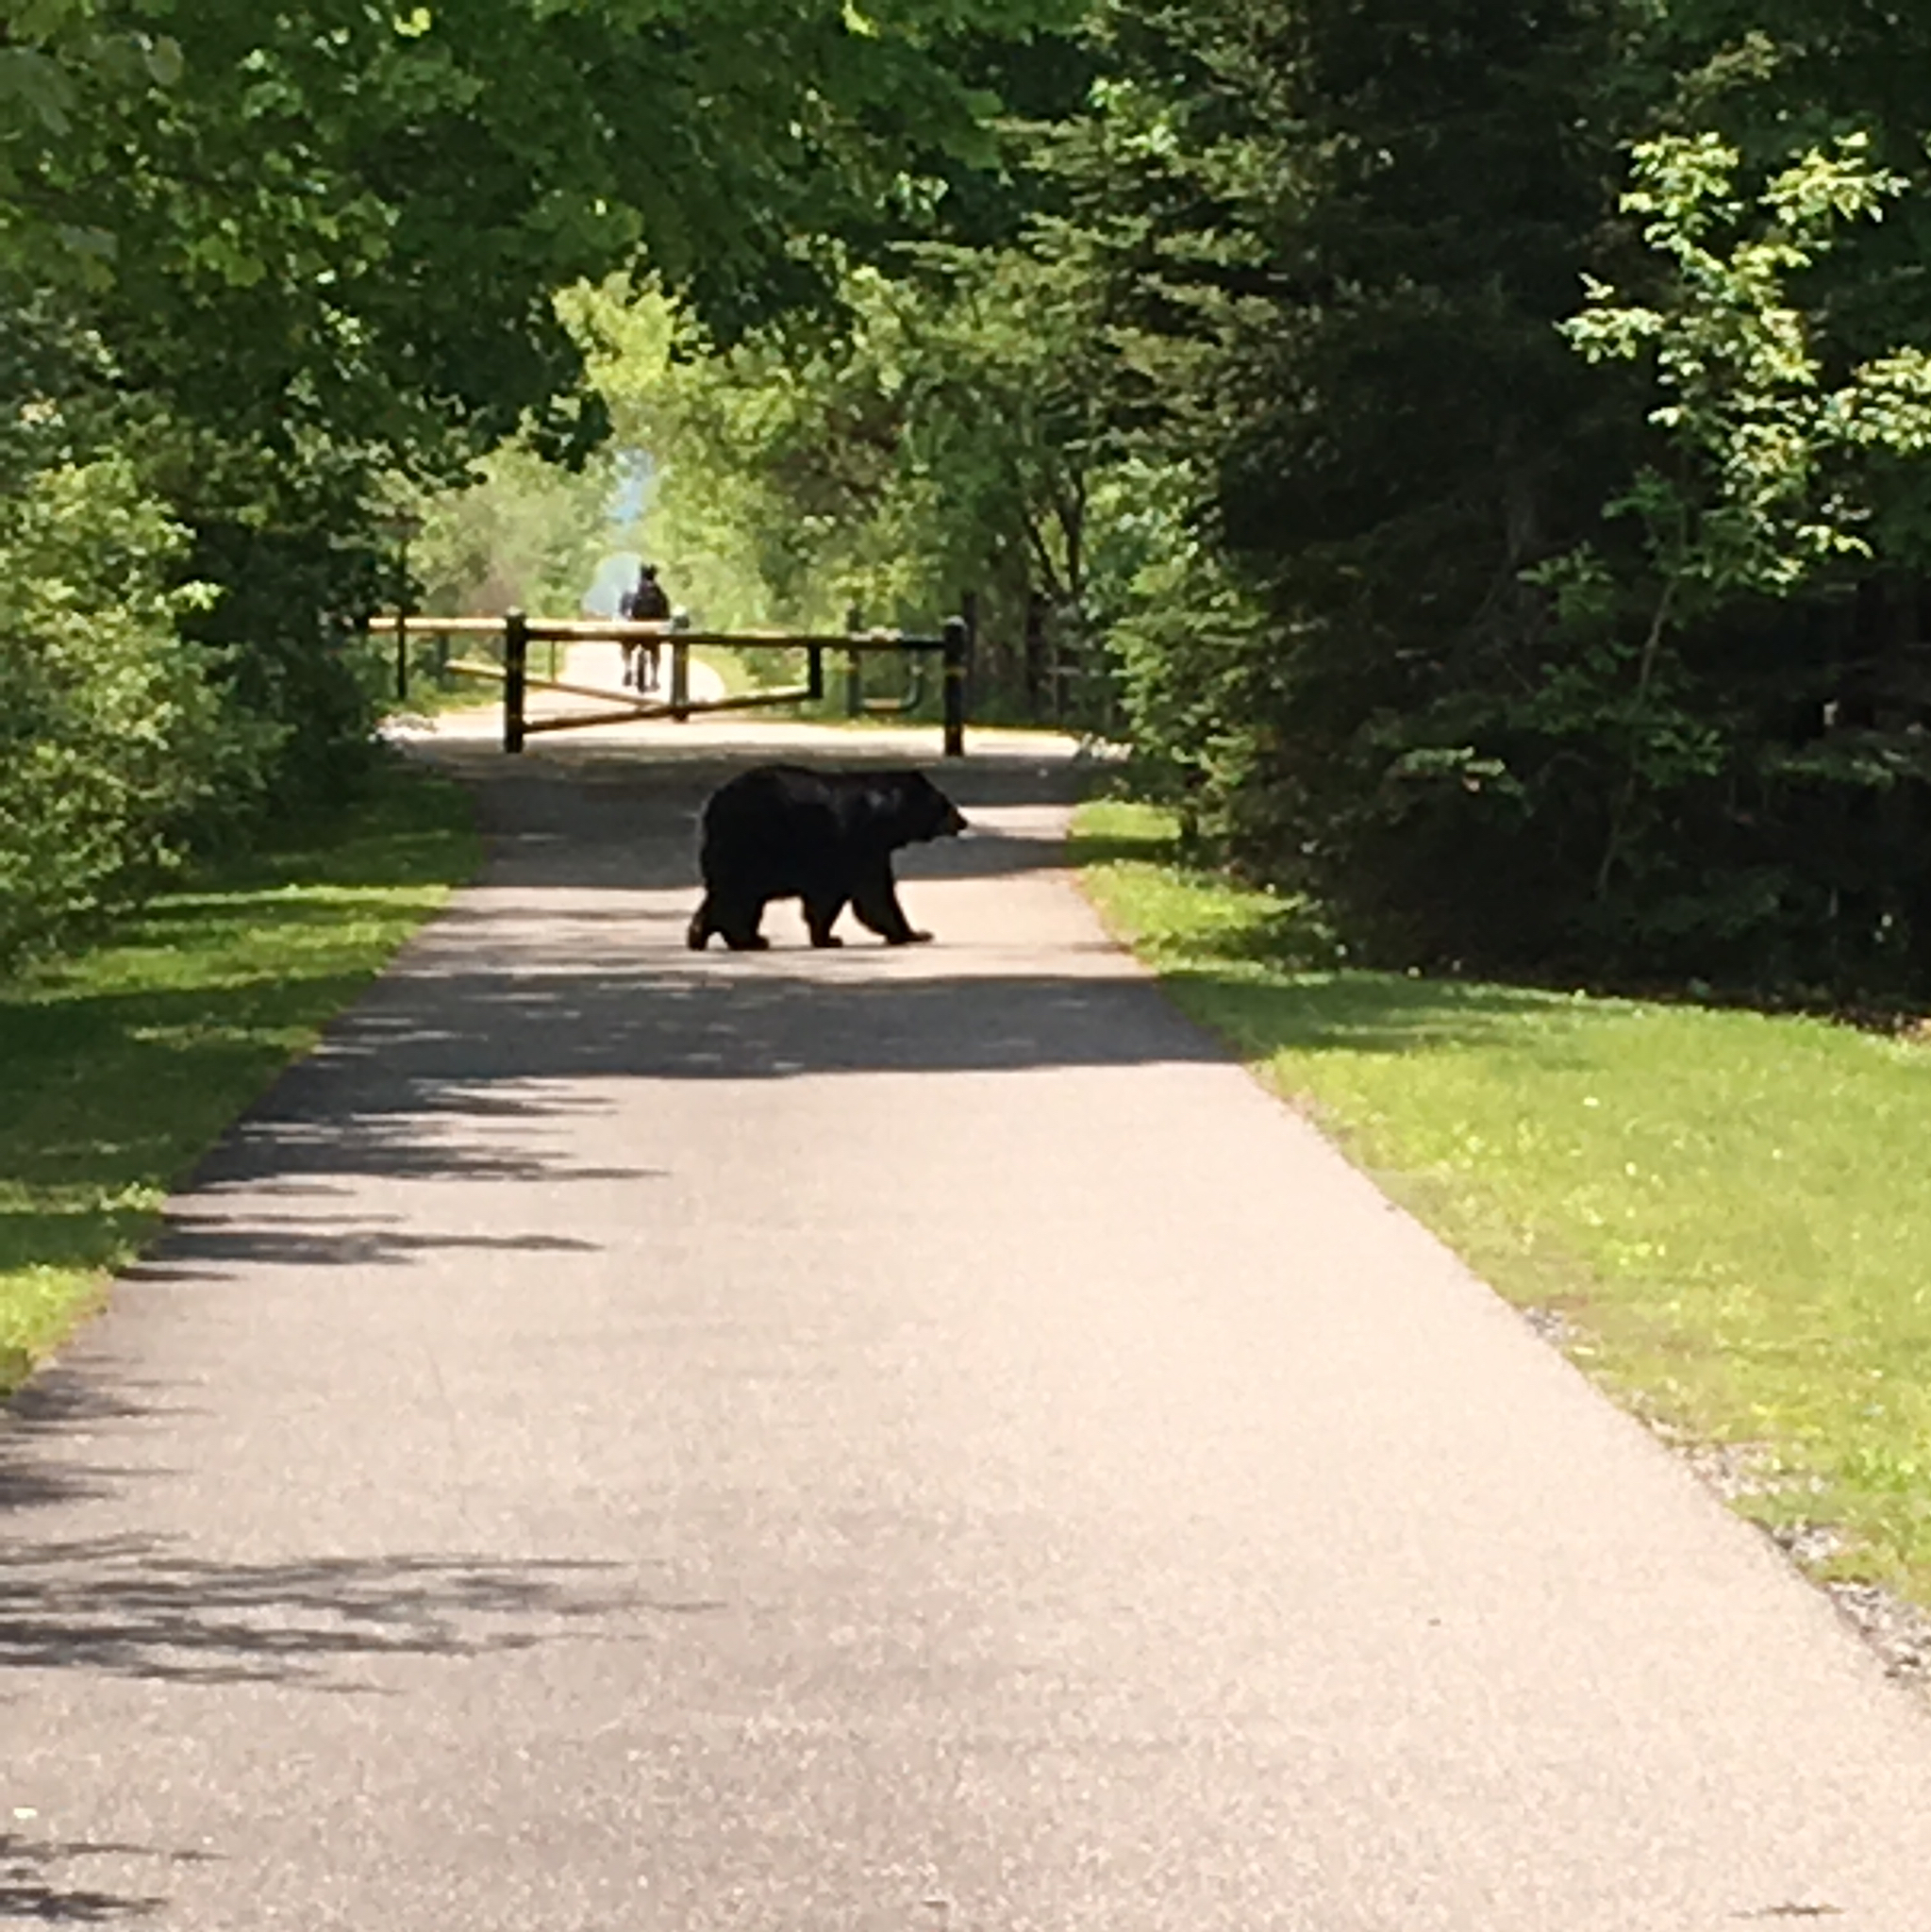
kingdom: Animalia
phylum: Chordata
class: Mammalia
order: Carnivora
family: Ursidae
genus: Ursus
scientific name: Ursus americanus
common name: American black bear
